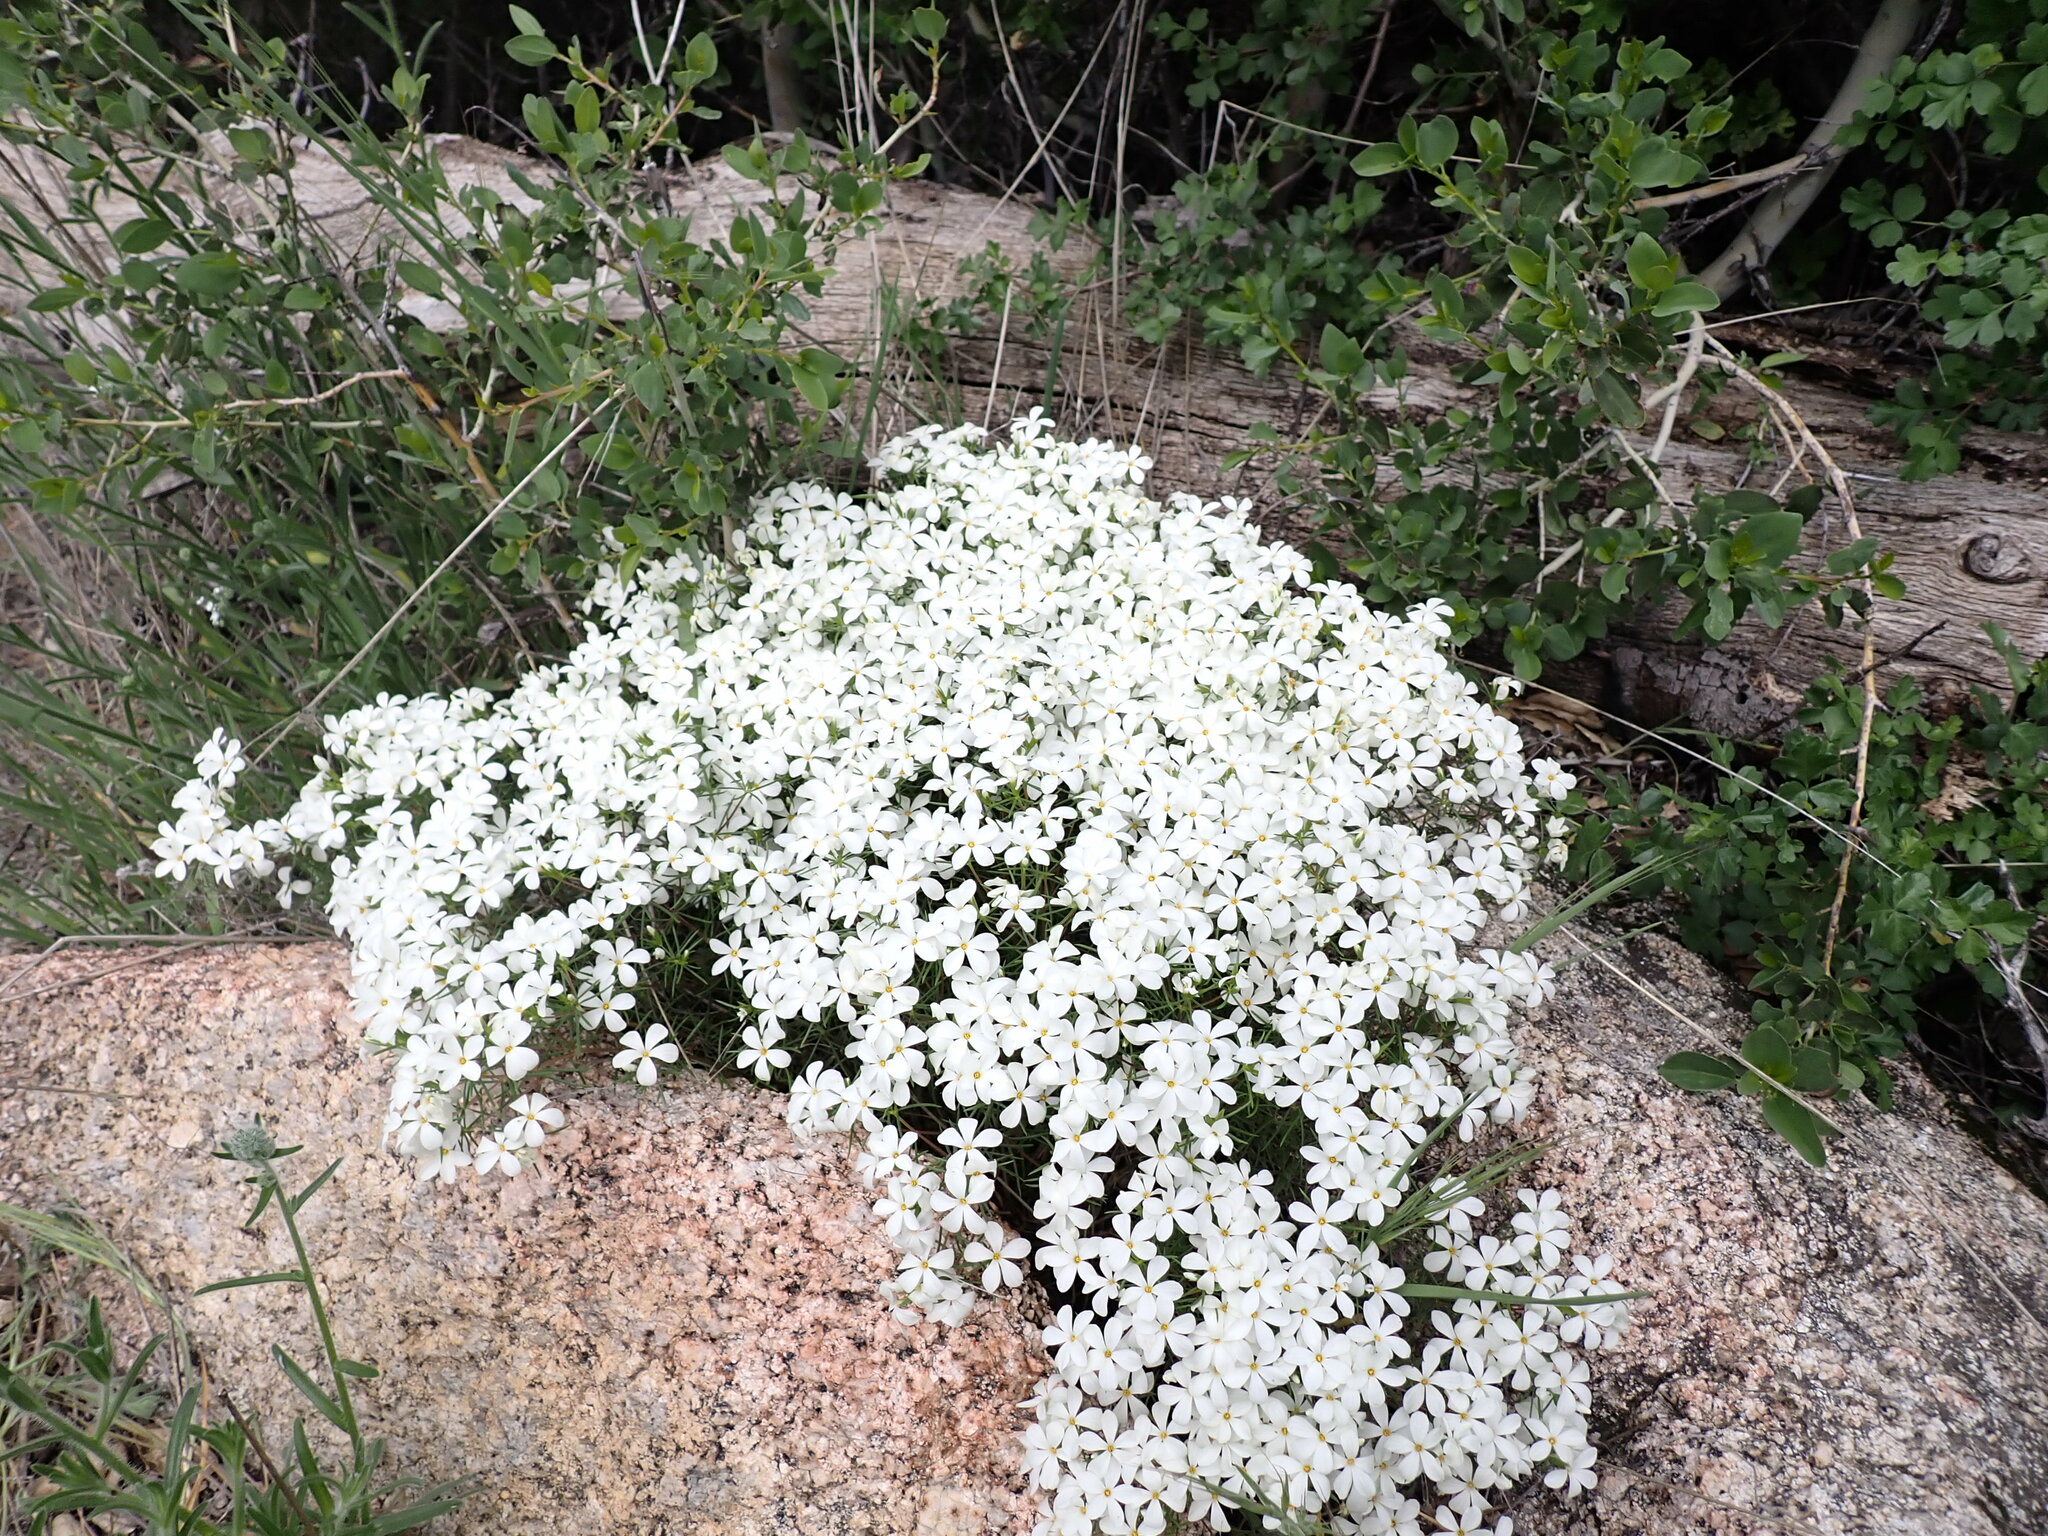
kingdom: Plantae
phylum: Tracheophyta
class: Magnoliopsida
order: Ericales
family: Polemoniaceae
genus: Leptosiphon
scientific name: Leptosiphon floribundum
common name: Many-flower linanthus
